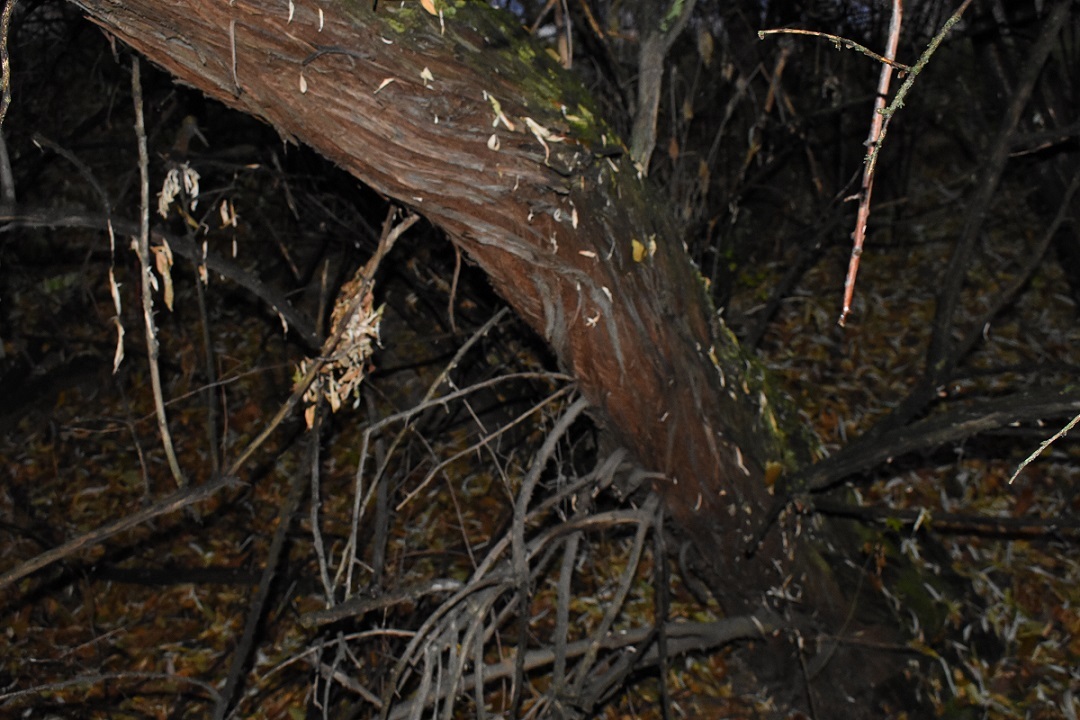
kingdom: Plantae
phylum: Tracheophyta
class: Magnoliopsida
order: Rosales
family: Elaeagnaceae
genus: Elaeagnus
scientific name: Elaeagnus angustifolia
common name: Russian olive
